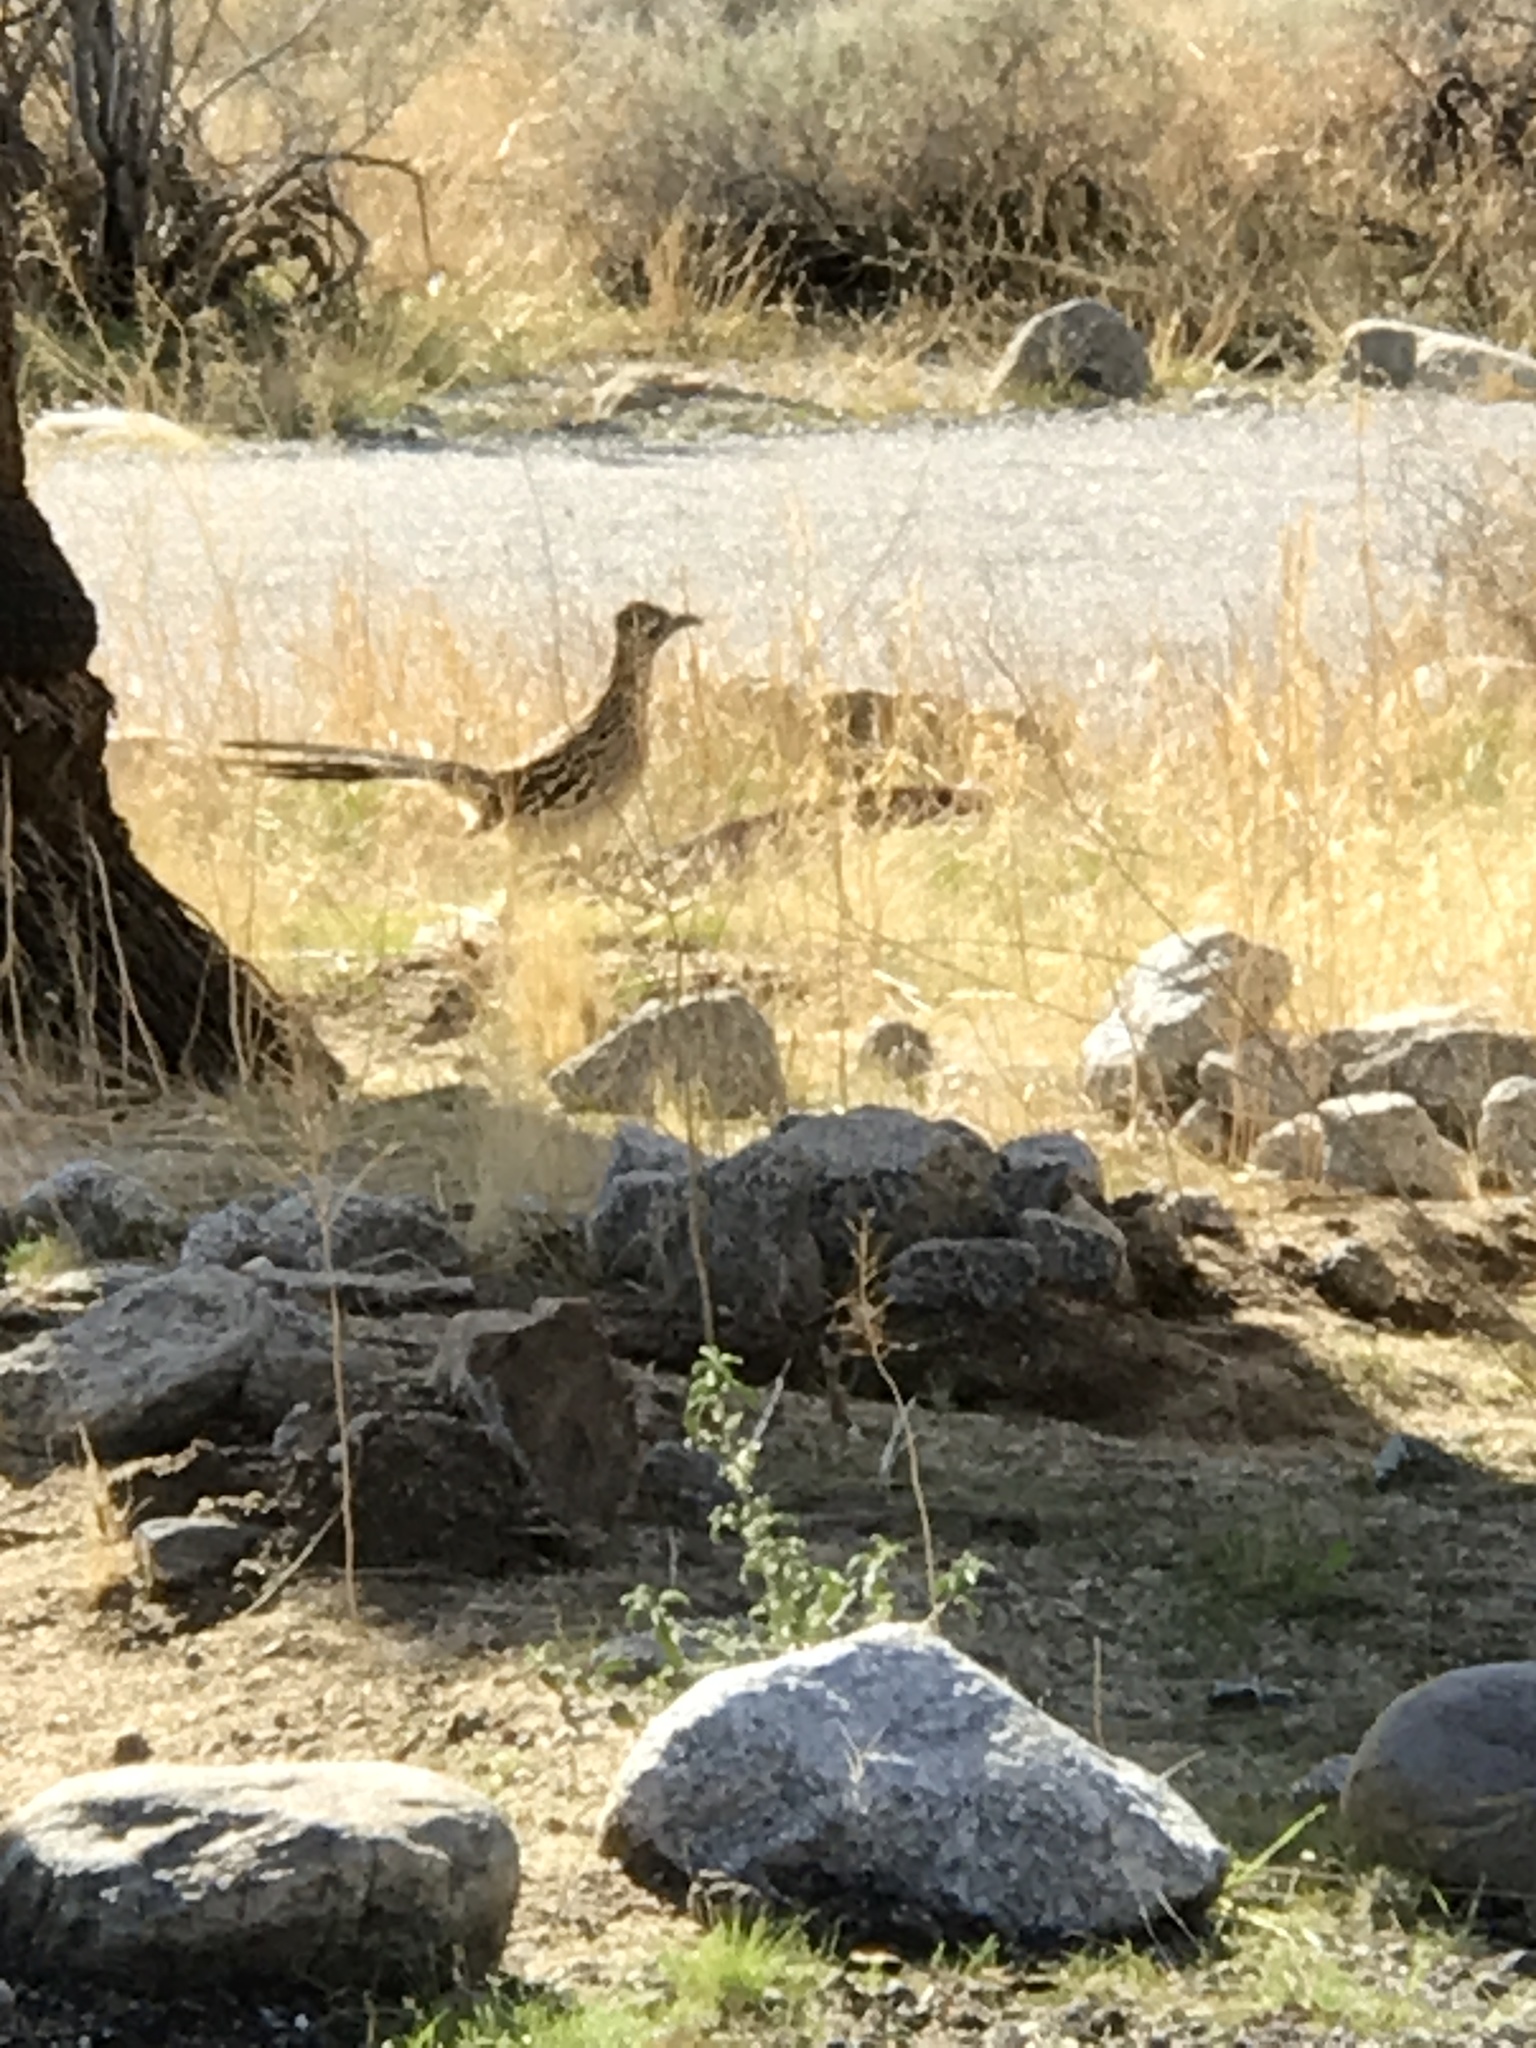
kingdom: Animalia
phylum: Chordata
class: Aves
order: Cuculiformes
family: Cuculidae
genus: Geococcyx
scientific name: Geococcyx californianus
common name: Greater roadrunner
